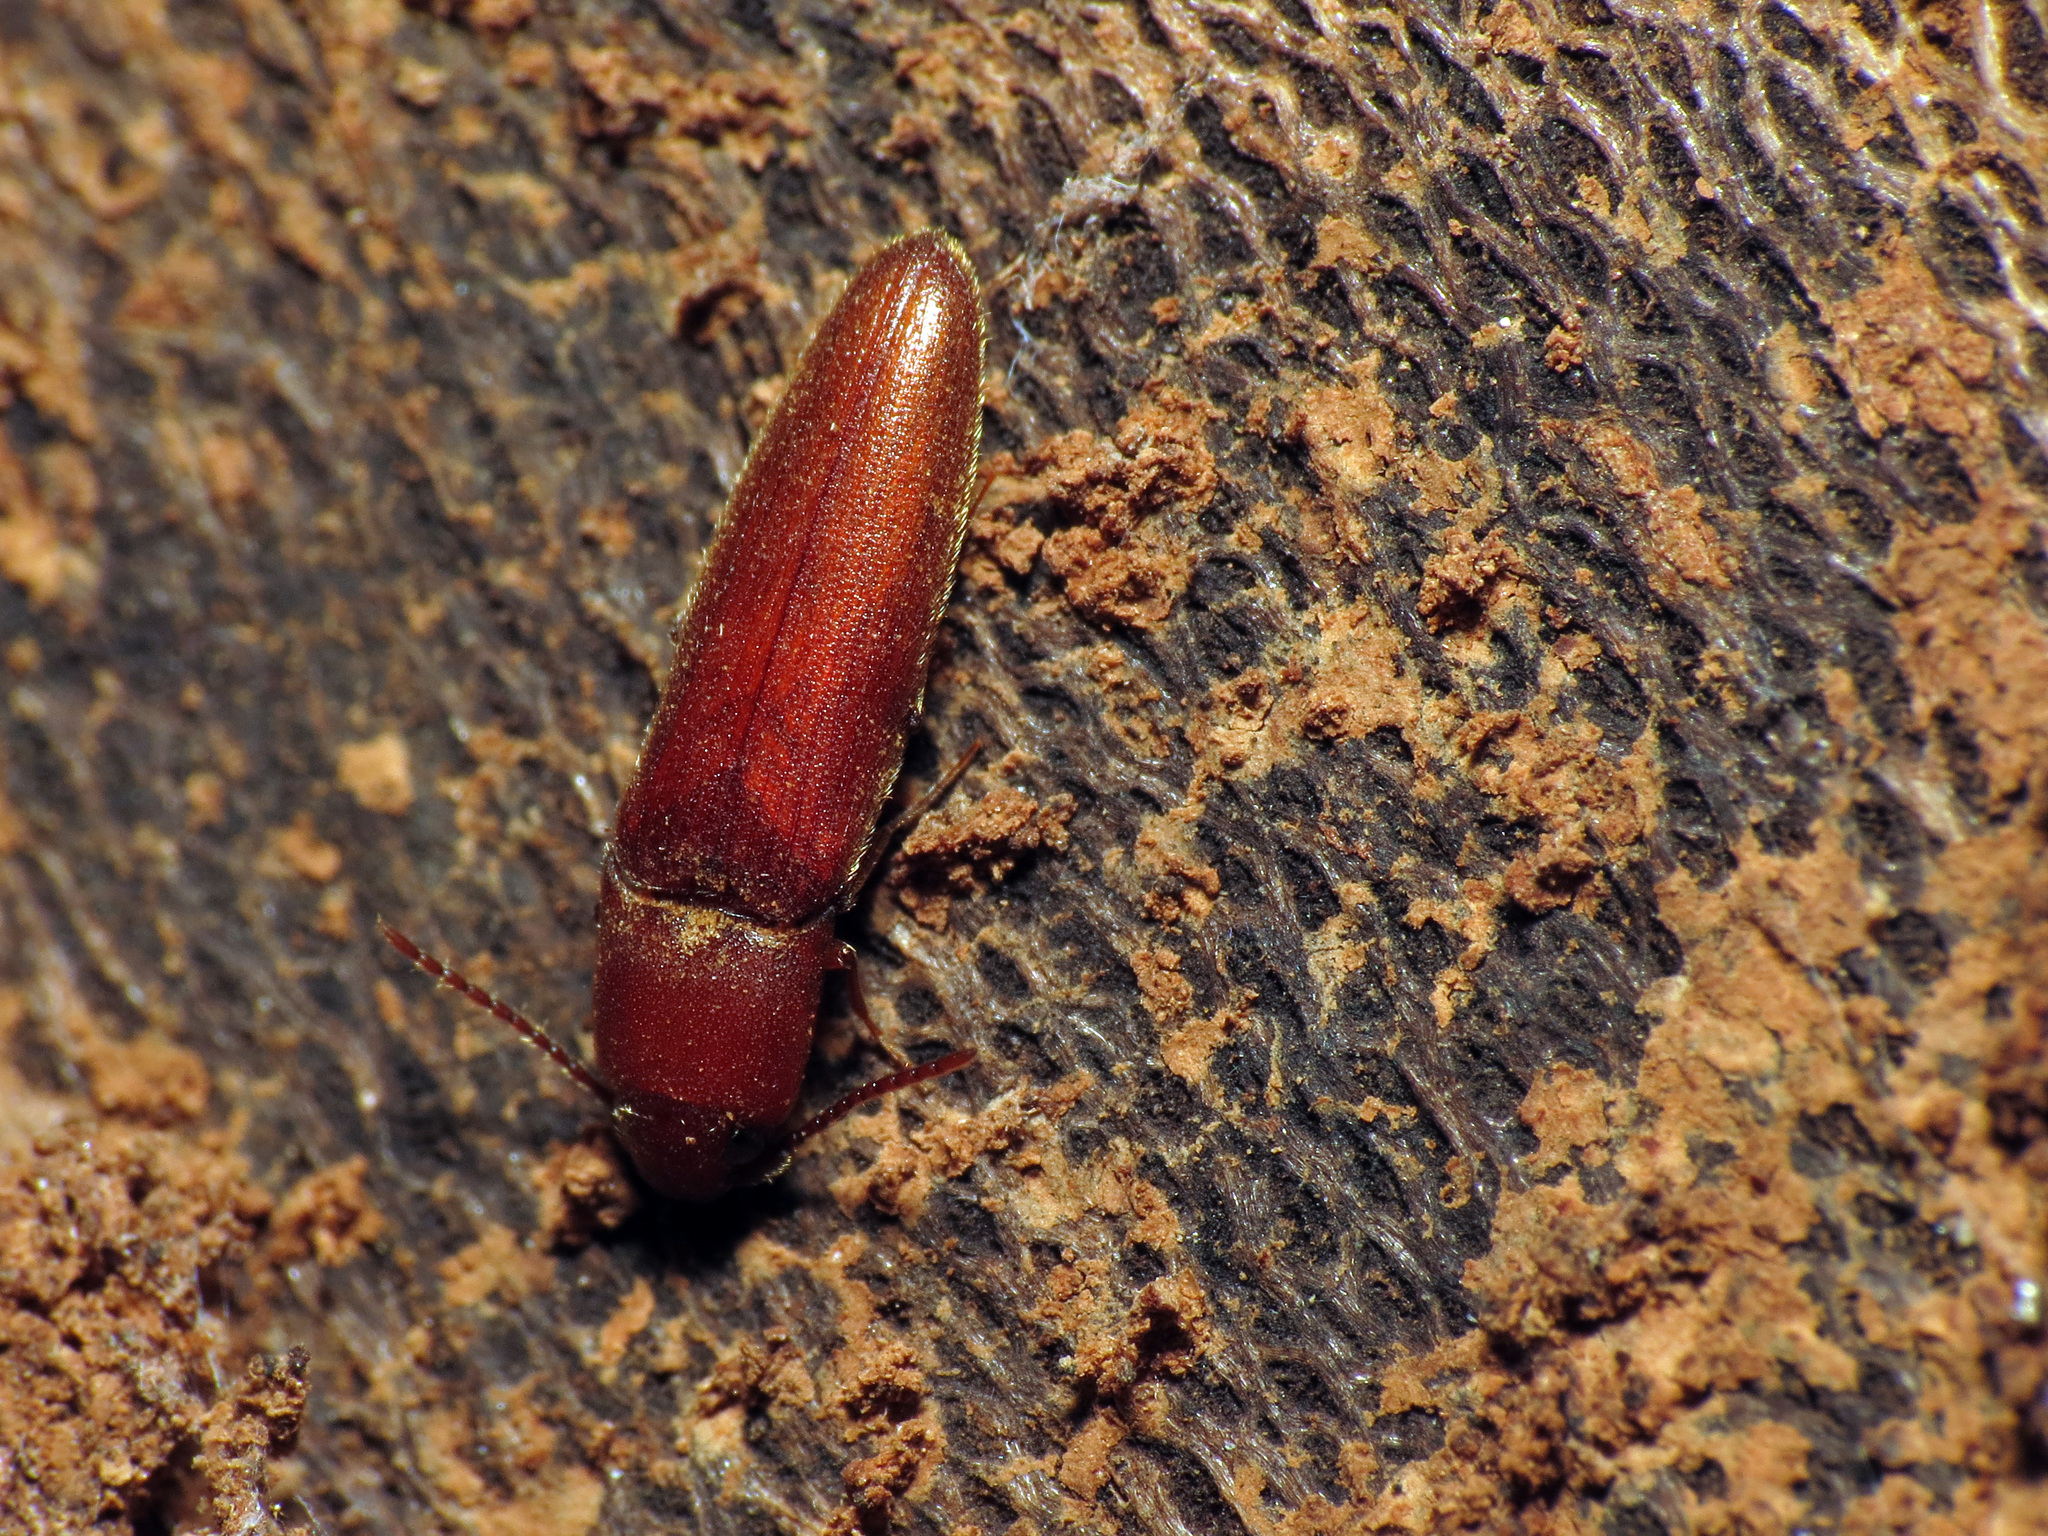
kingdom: Animalia
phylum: Arthropoda
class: Insecta
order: Coleoptera
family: Eucnemidae
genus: Schizophilus
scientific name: Schizophilus subrufus
